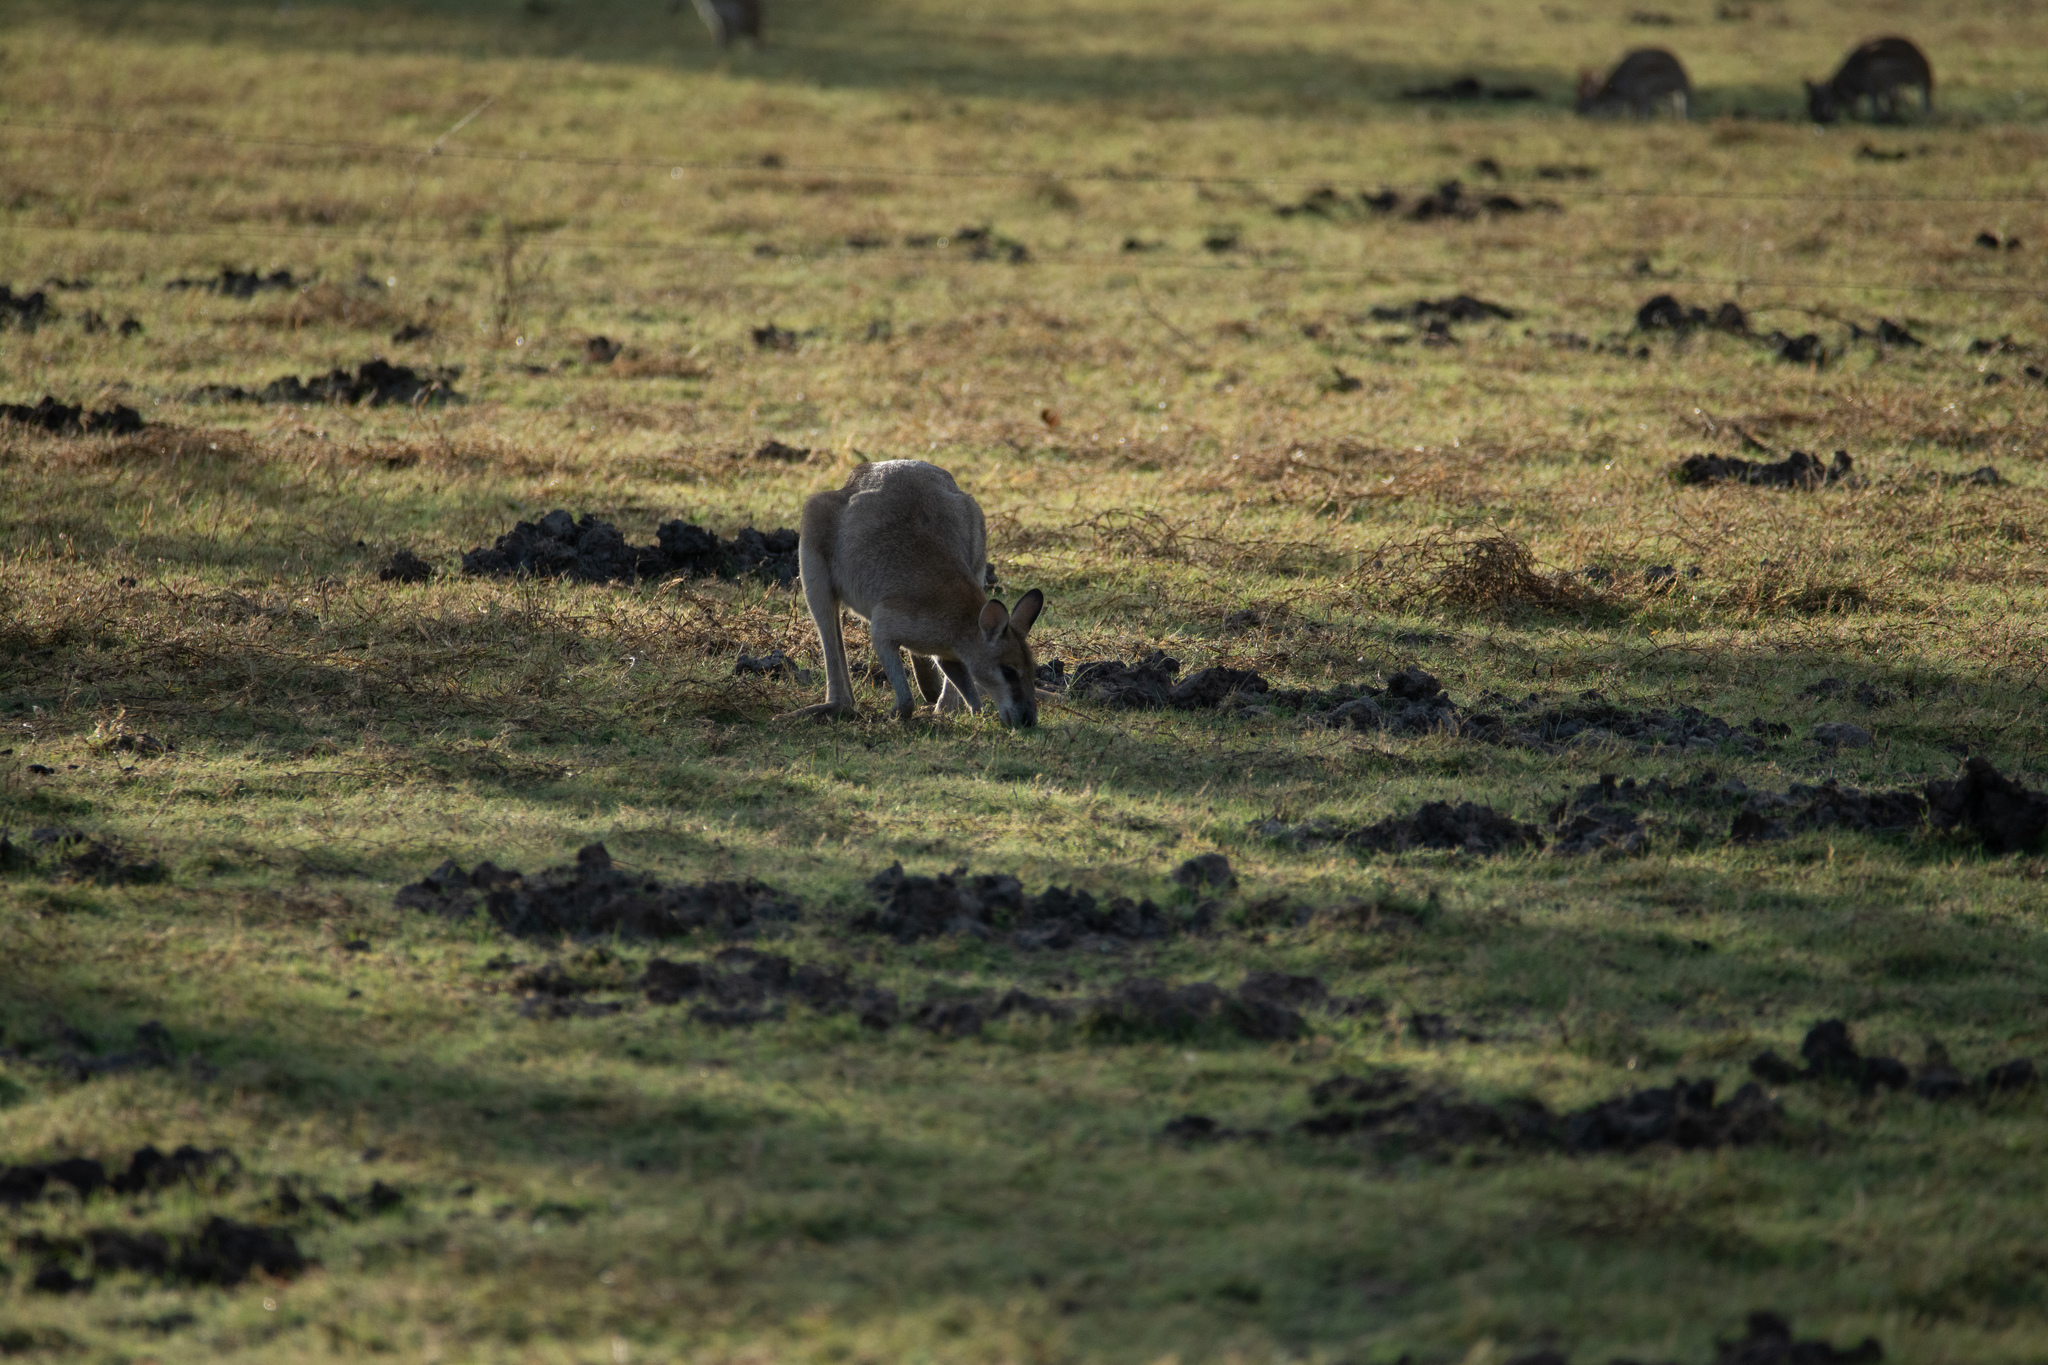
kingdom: Animalia
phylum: Chordata
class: Mammalia
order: Diprotodontia
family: Macropodidae
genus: Macropus
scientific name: Macropus agilis
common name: Agile wallaby
